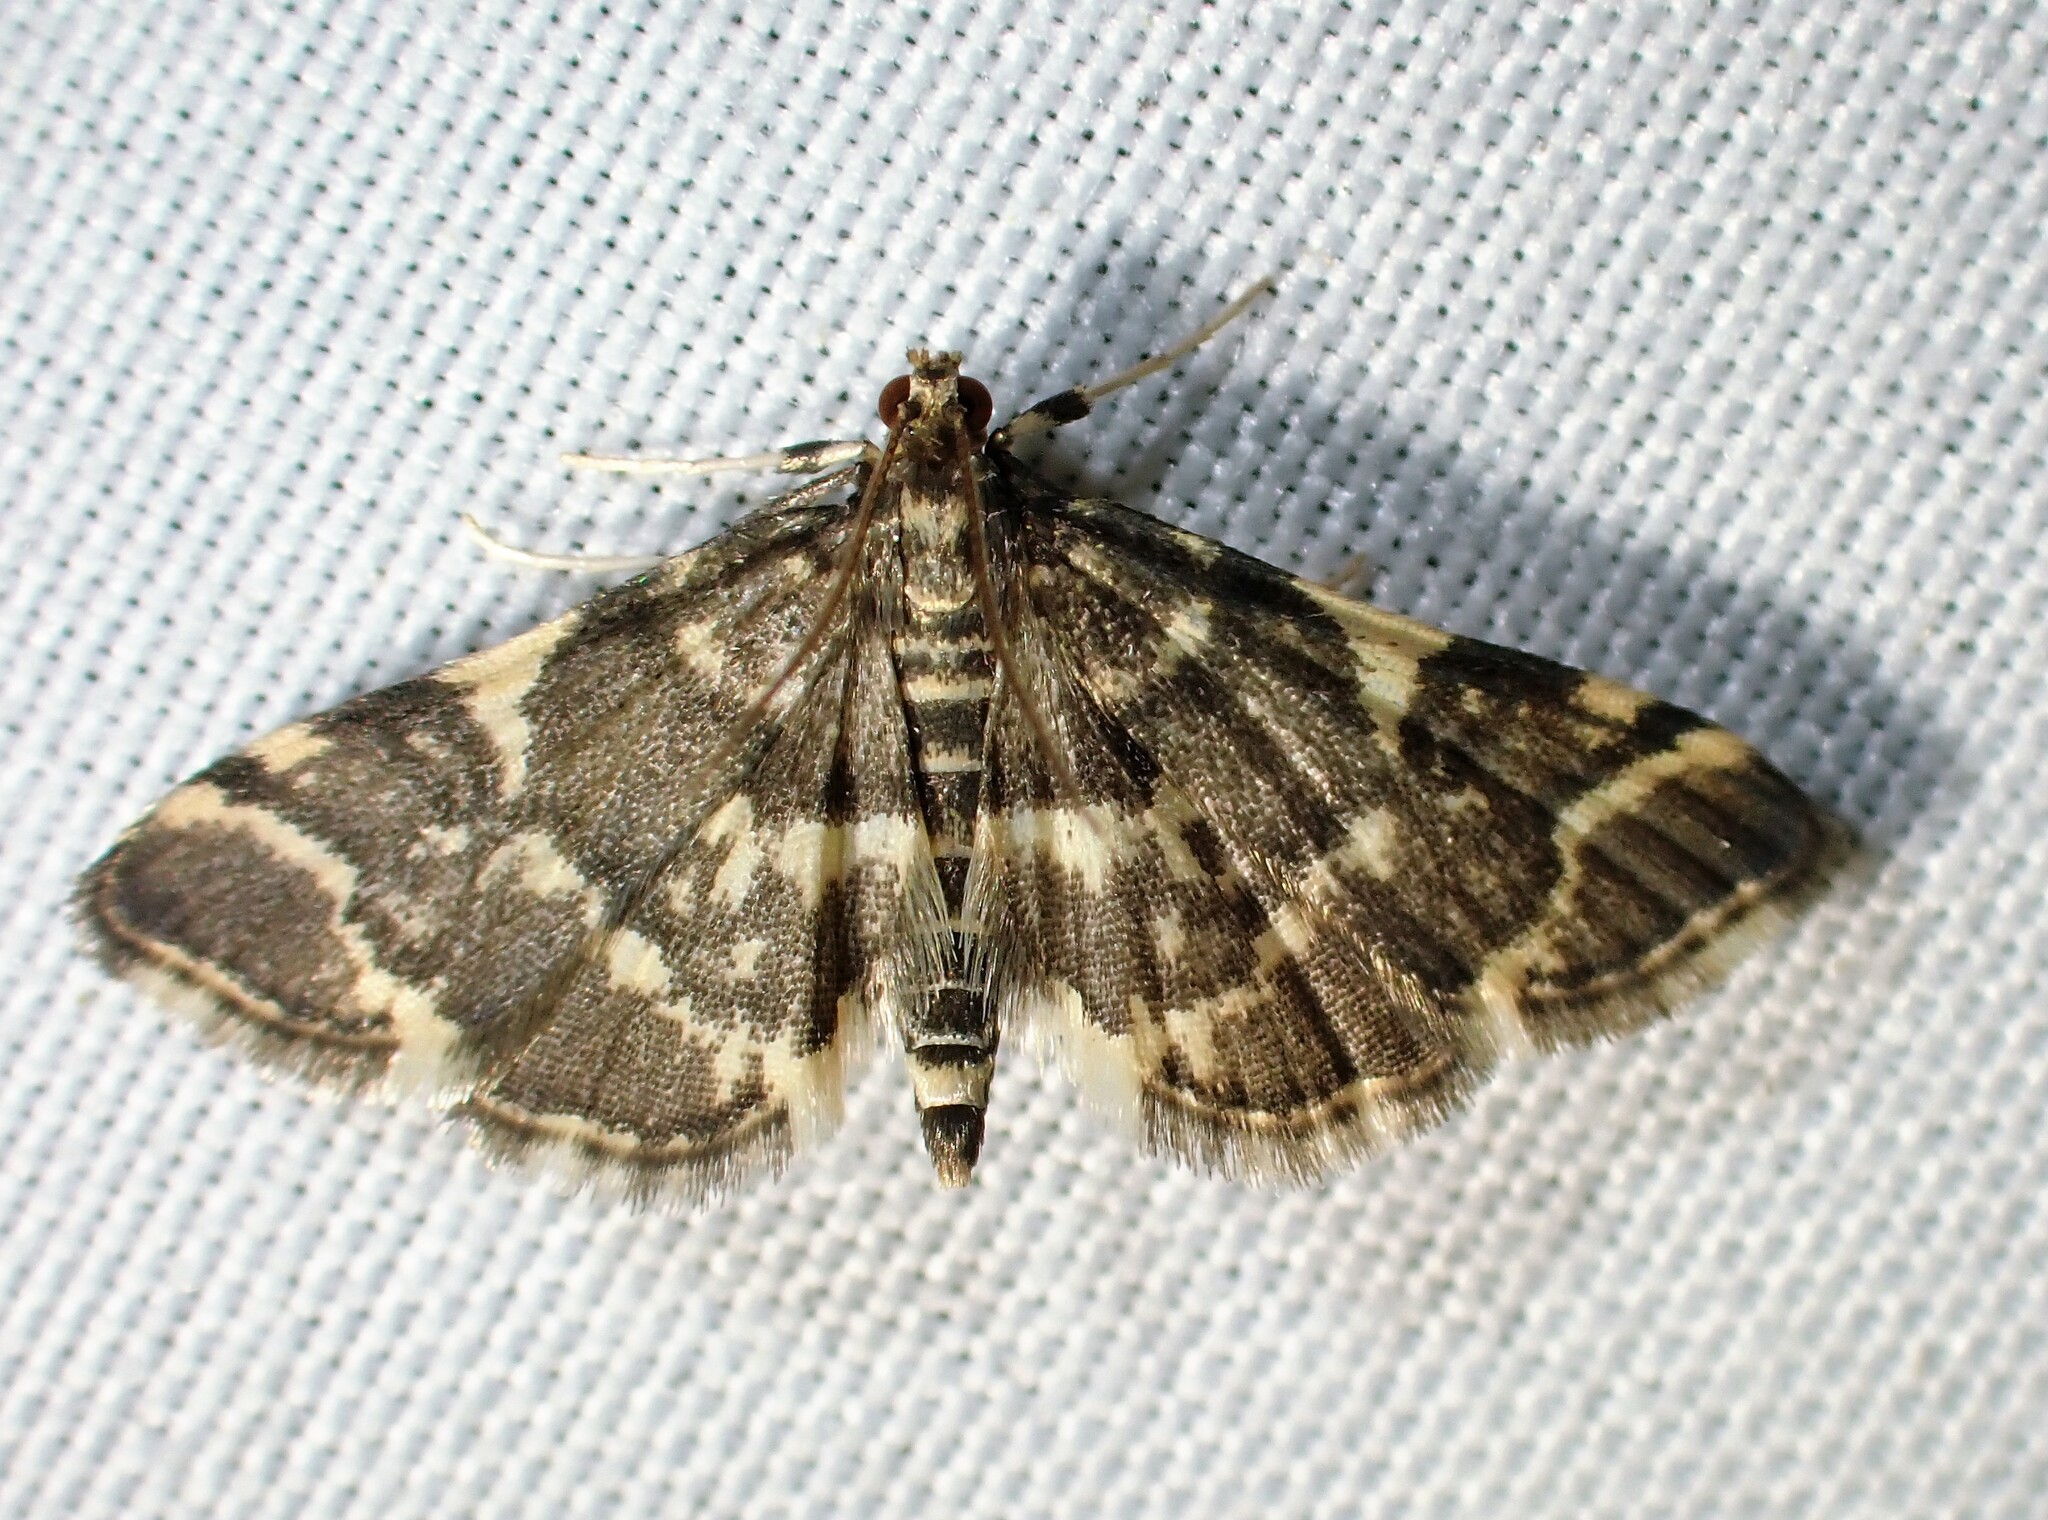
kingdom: Animalia
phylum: Arthropoda
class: Insecta
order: Lepidoptera
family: Crambidae
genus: Anageshna
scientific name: Anageshna primordialis
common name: Yellow-spotted webworm moth
